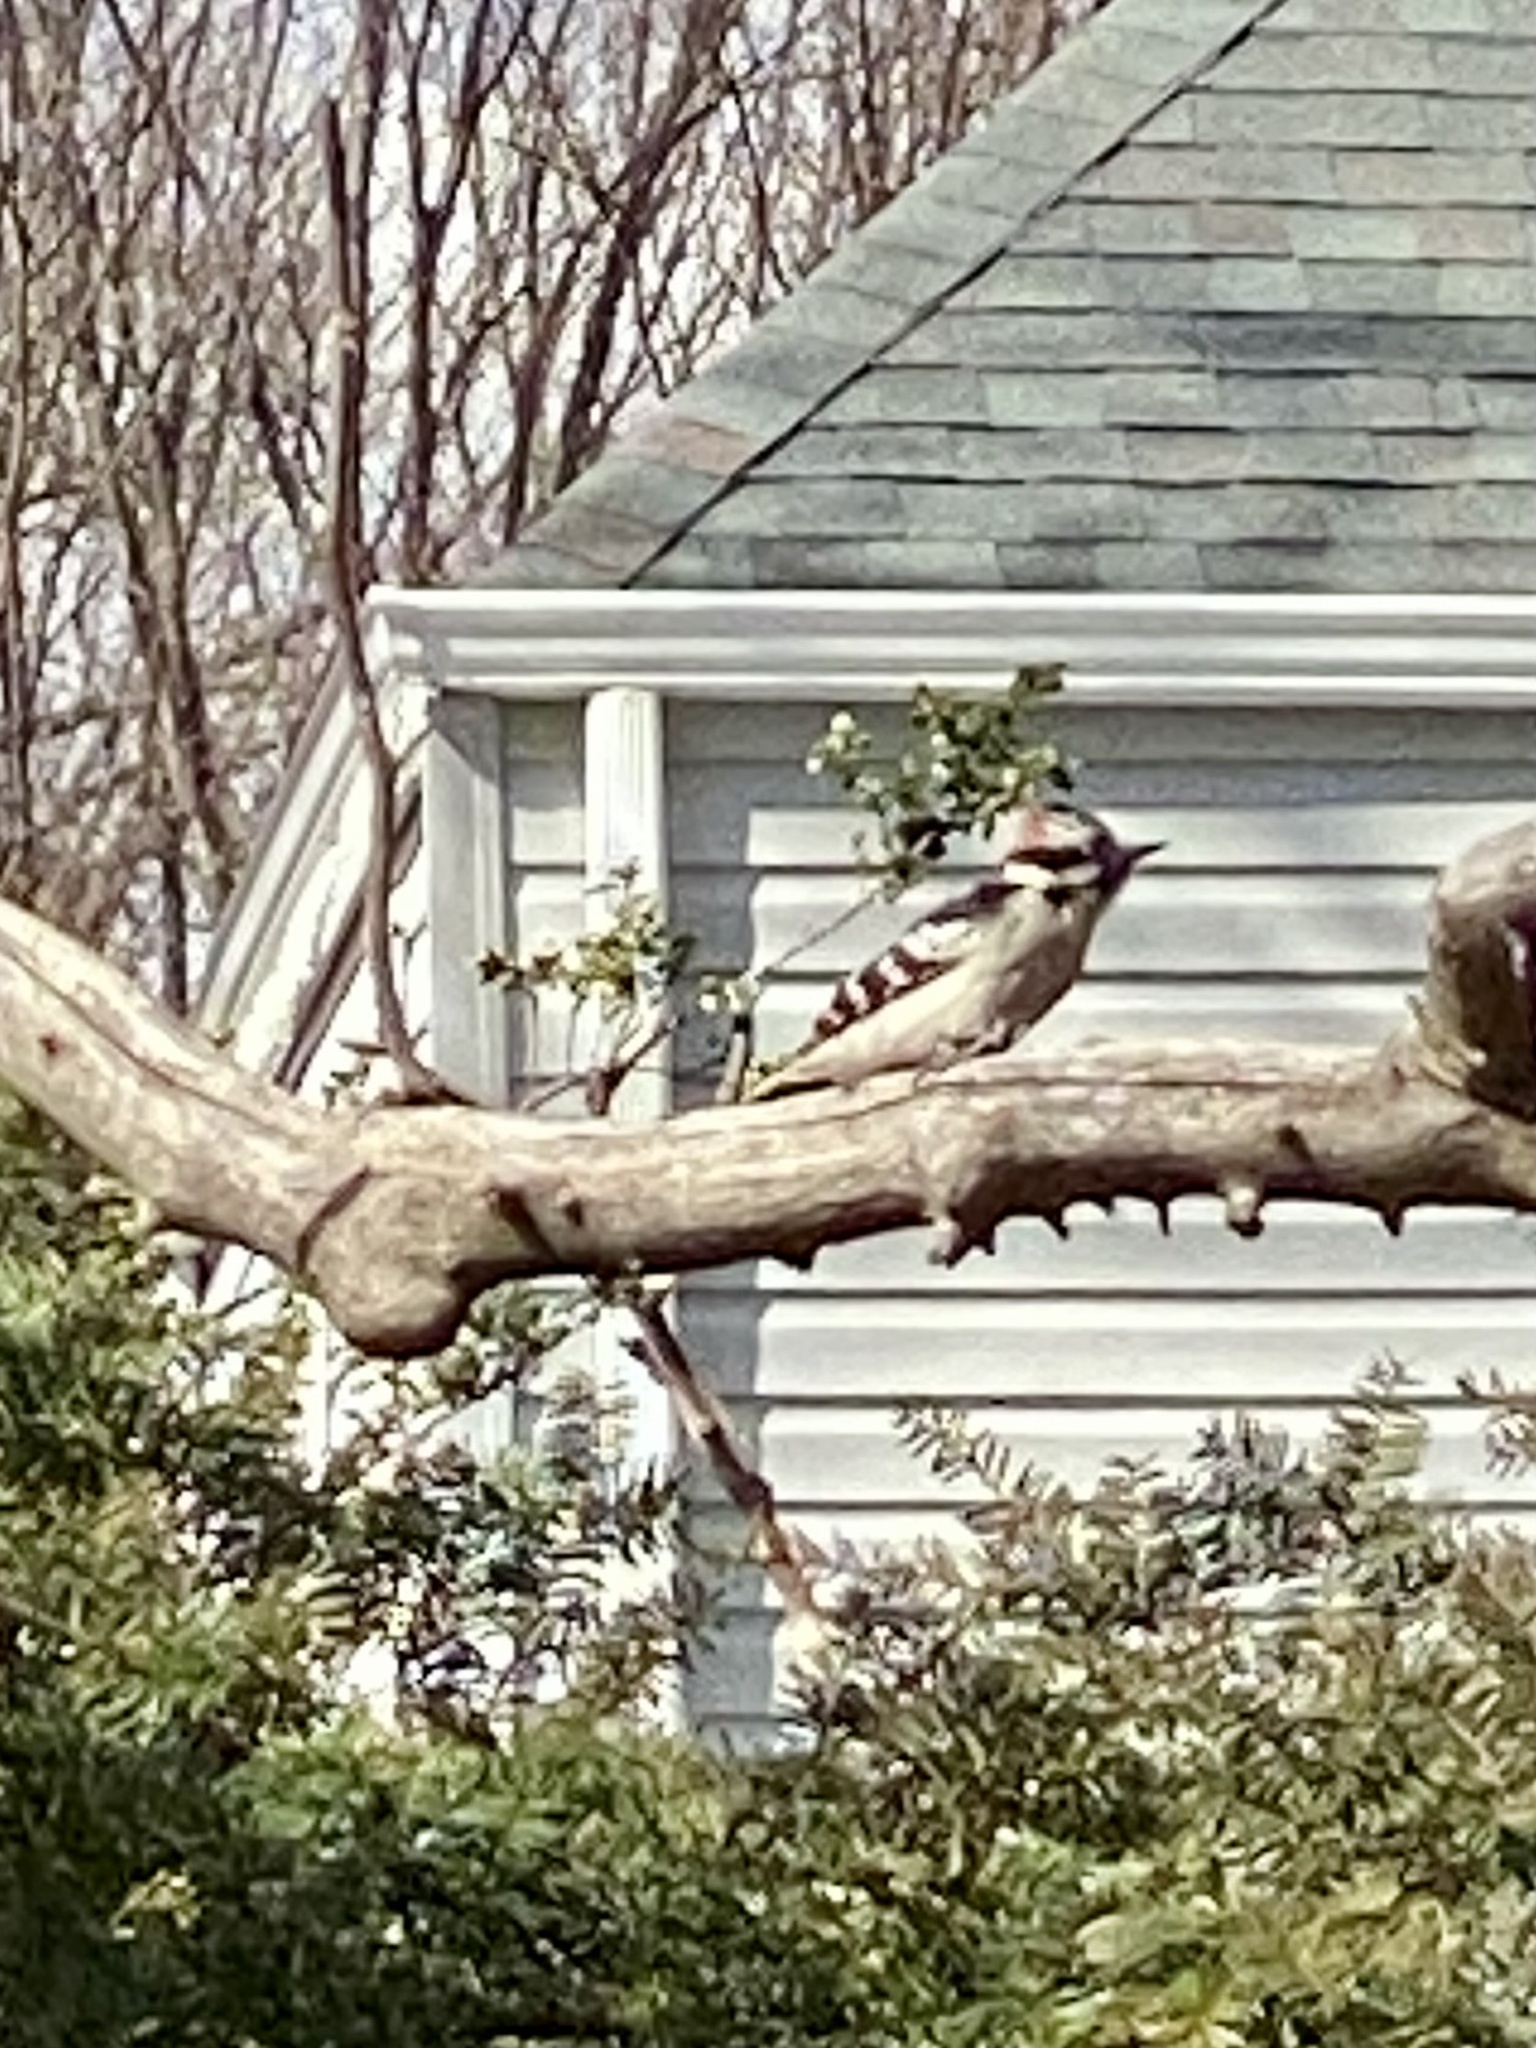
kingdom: Animalia
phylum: Chordata
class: Aves
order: Piciformes
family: Picidae
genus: Dryobates
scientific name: Dryobates pubescens
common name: Downy woodpecker
